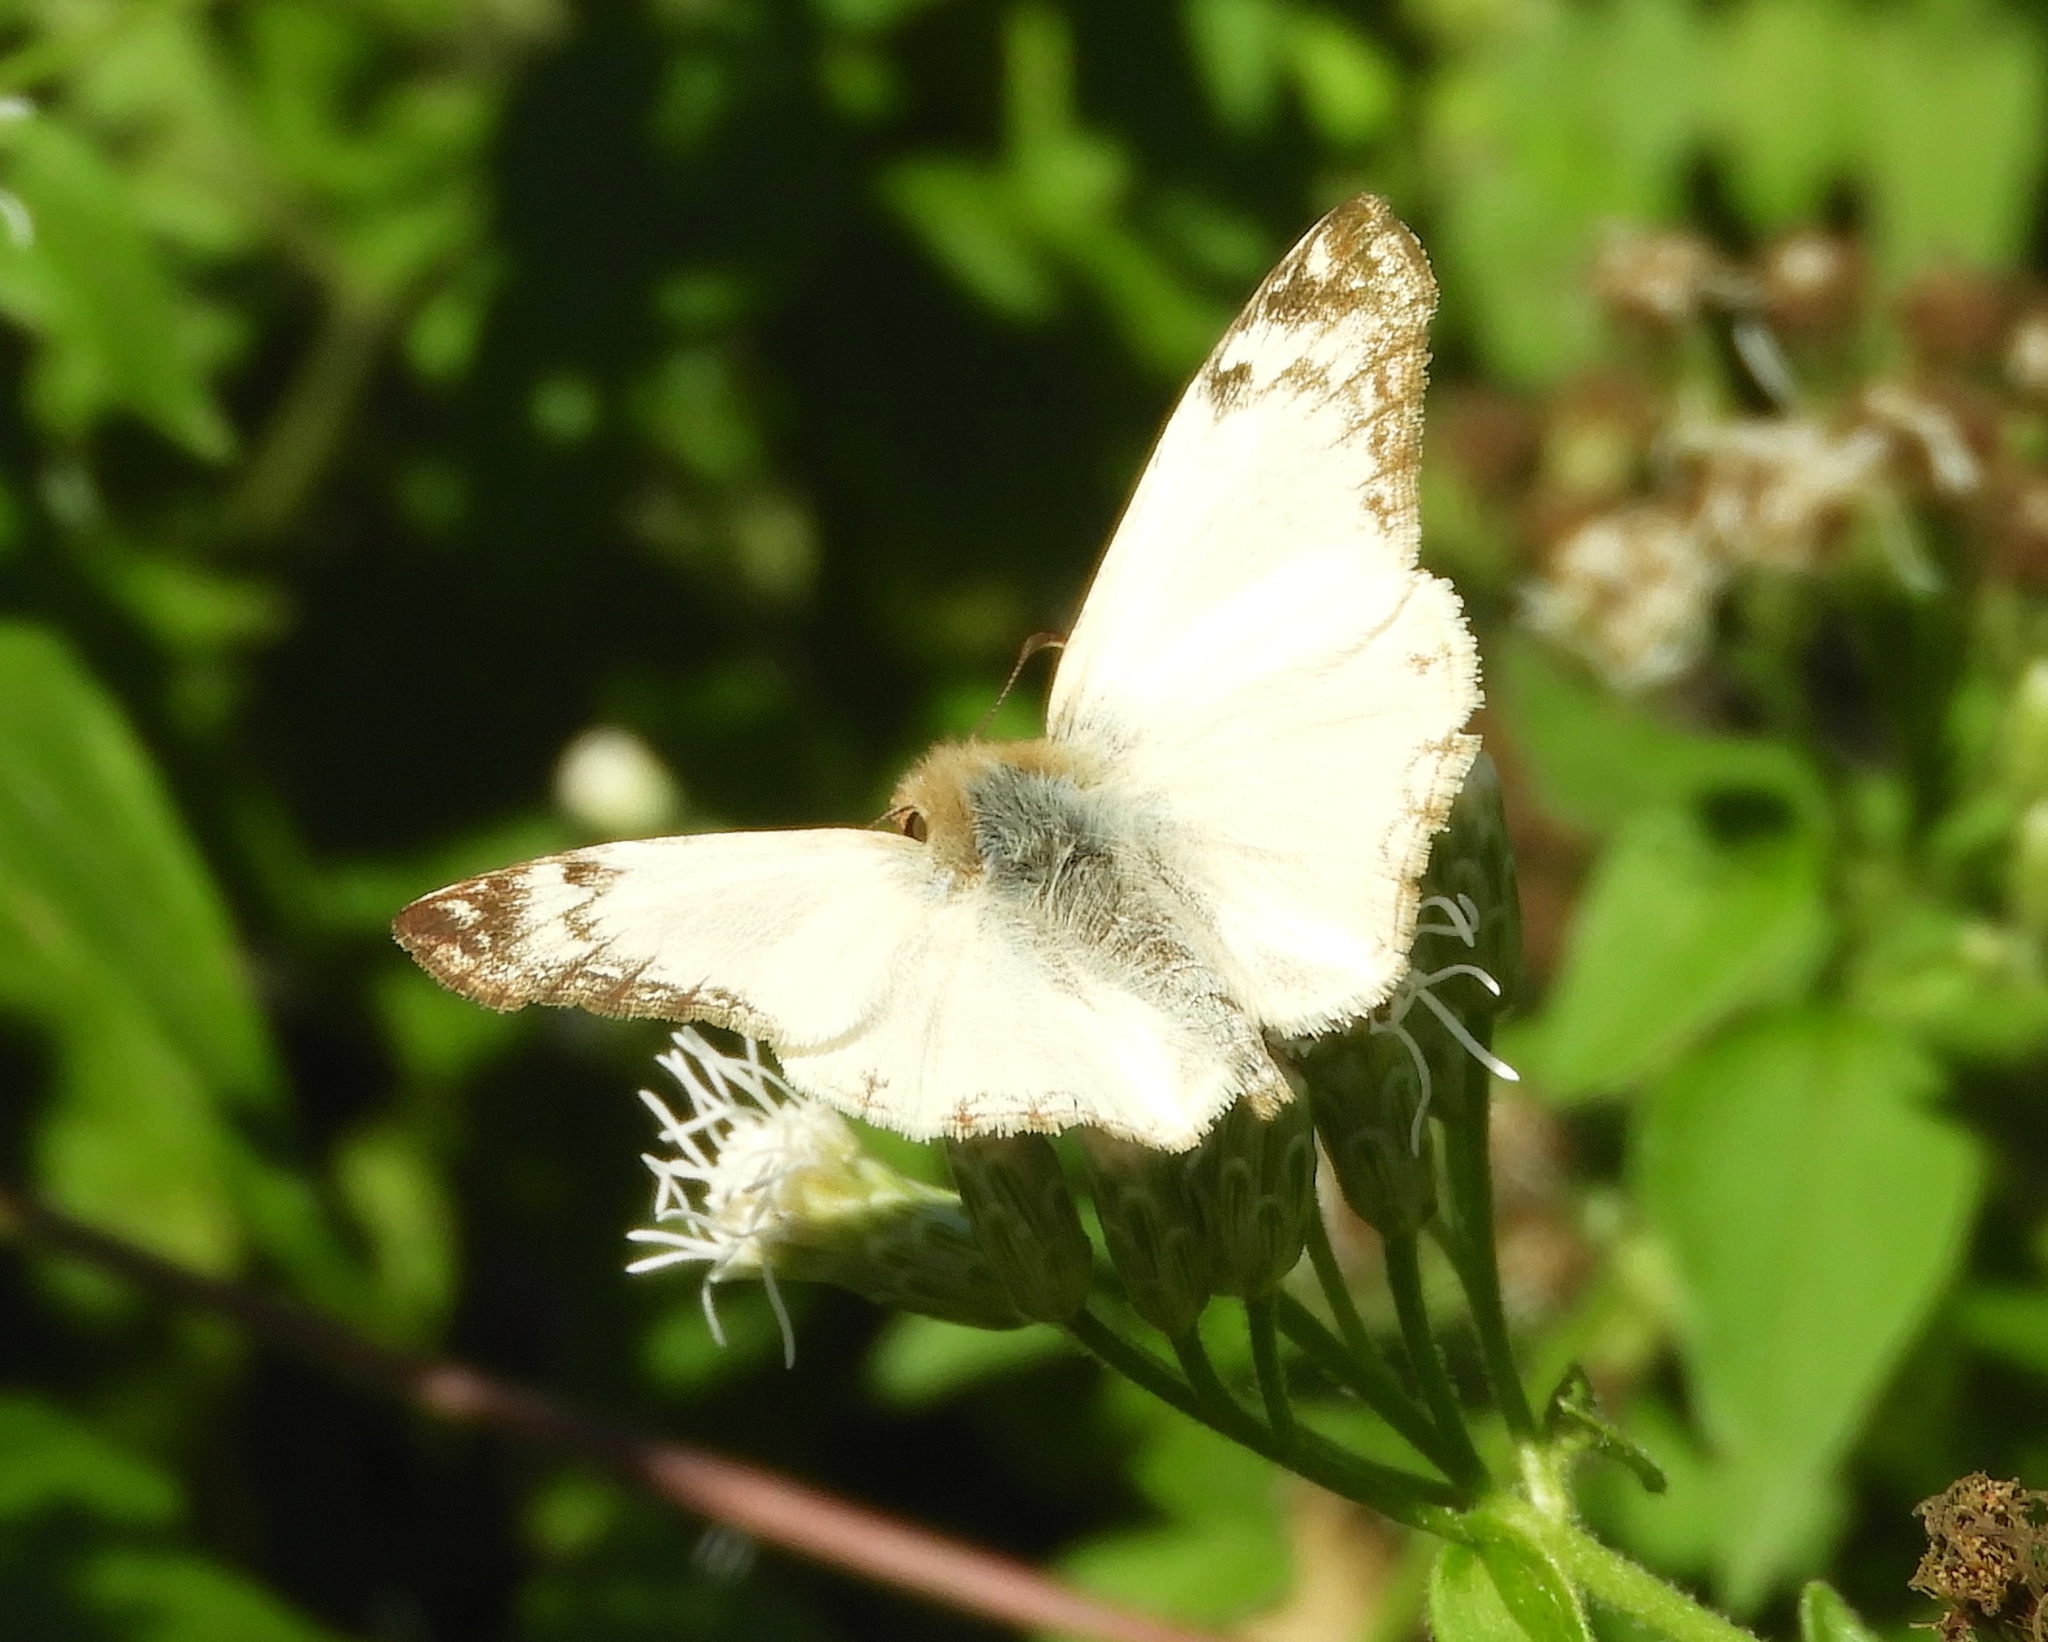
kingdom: Animalia
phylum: Arthropoda
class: Insecta
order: Lepidoptera
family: Hesperiidae
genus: Heliopetes
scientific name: Heliopetes laviana
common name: Laviana white-skipper
